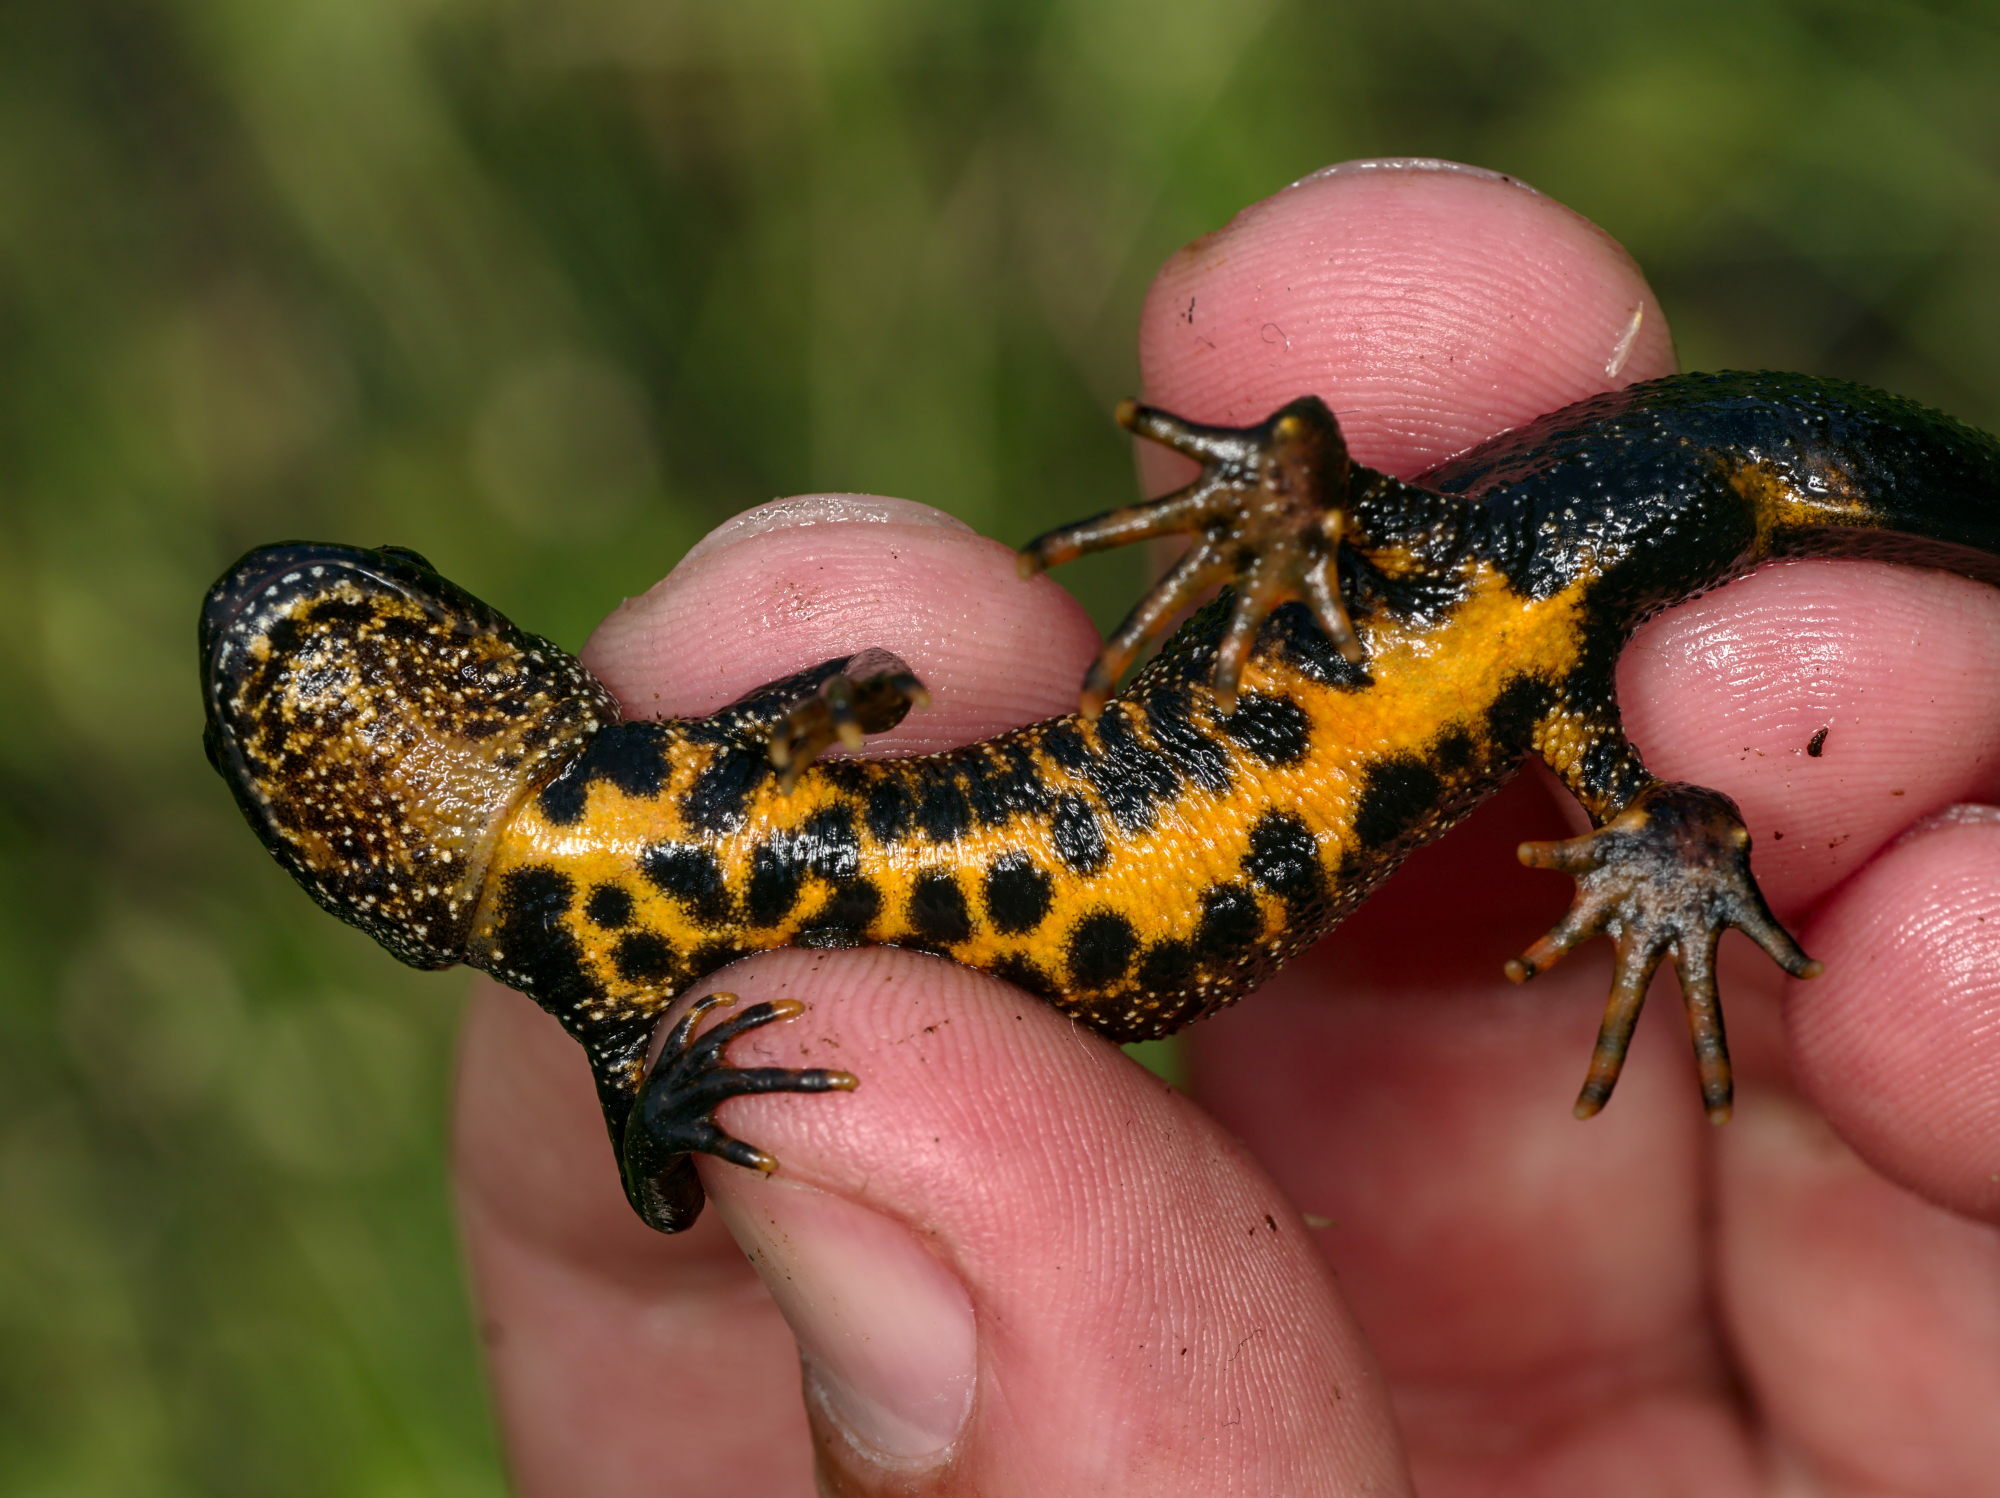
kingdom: Animalia
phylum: Chordata
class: Amphibia
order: Caudata
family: Salamandridae
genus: Triturus
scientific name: Triturus cristatus
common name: Crested newt
